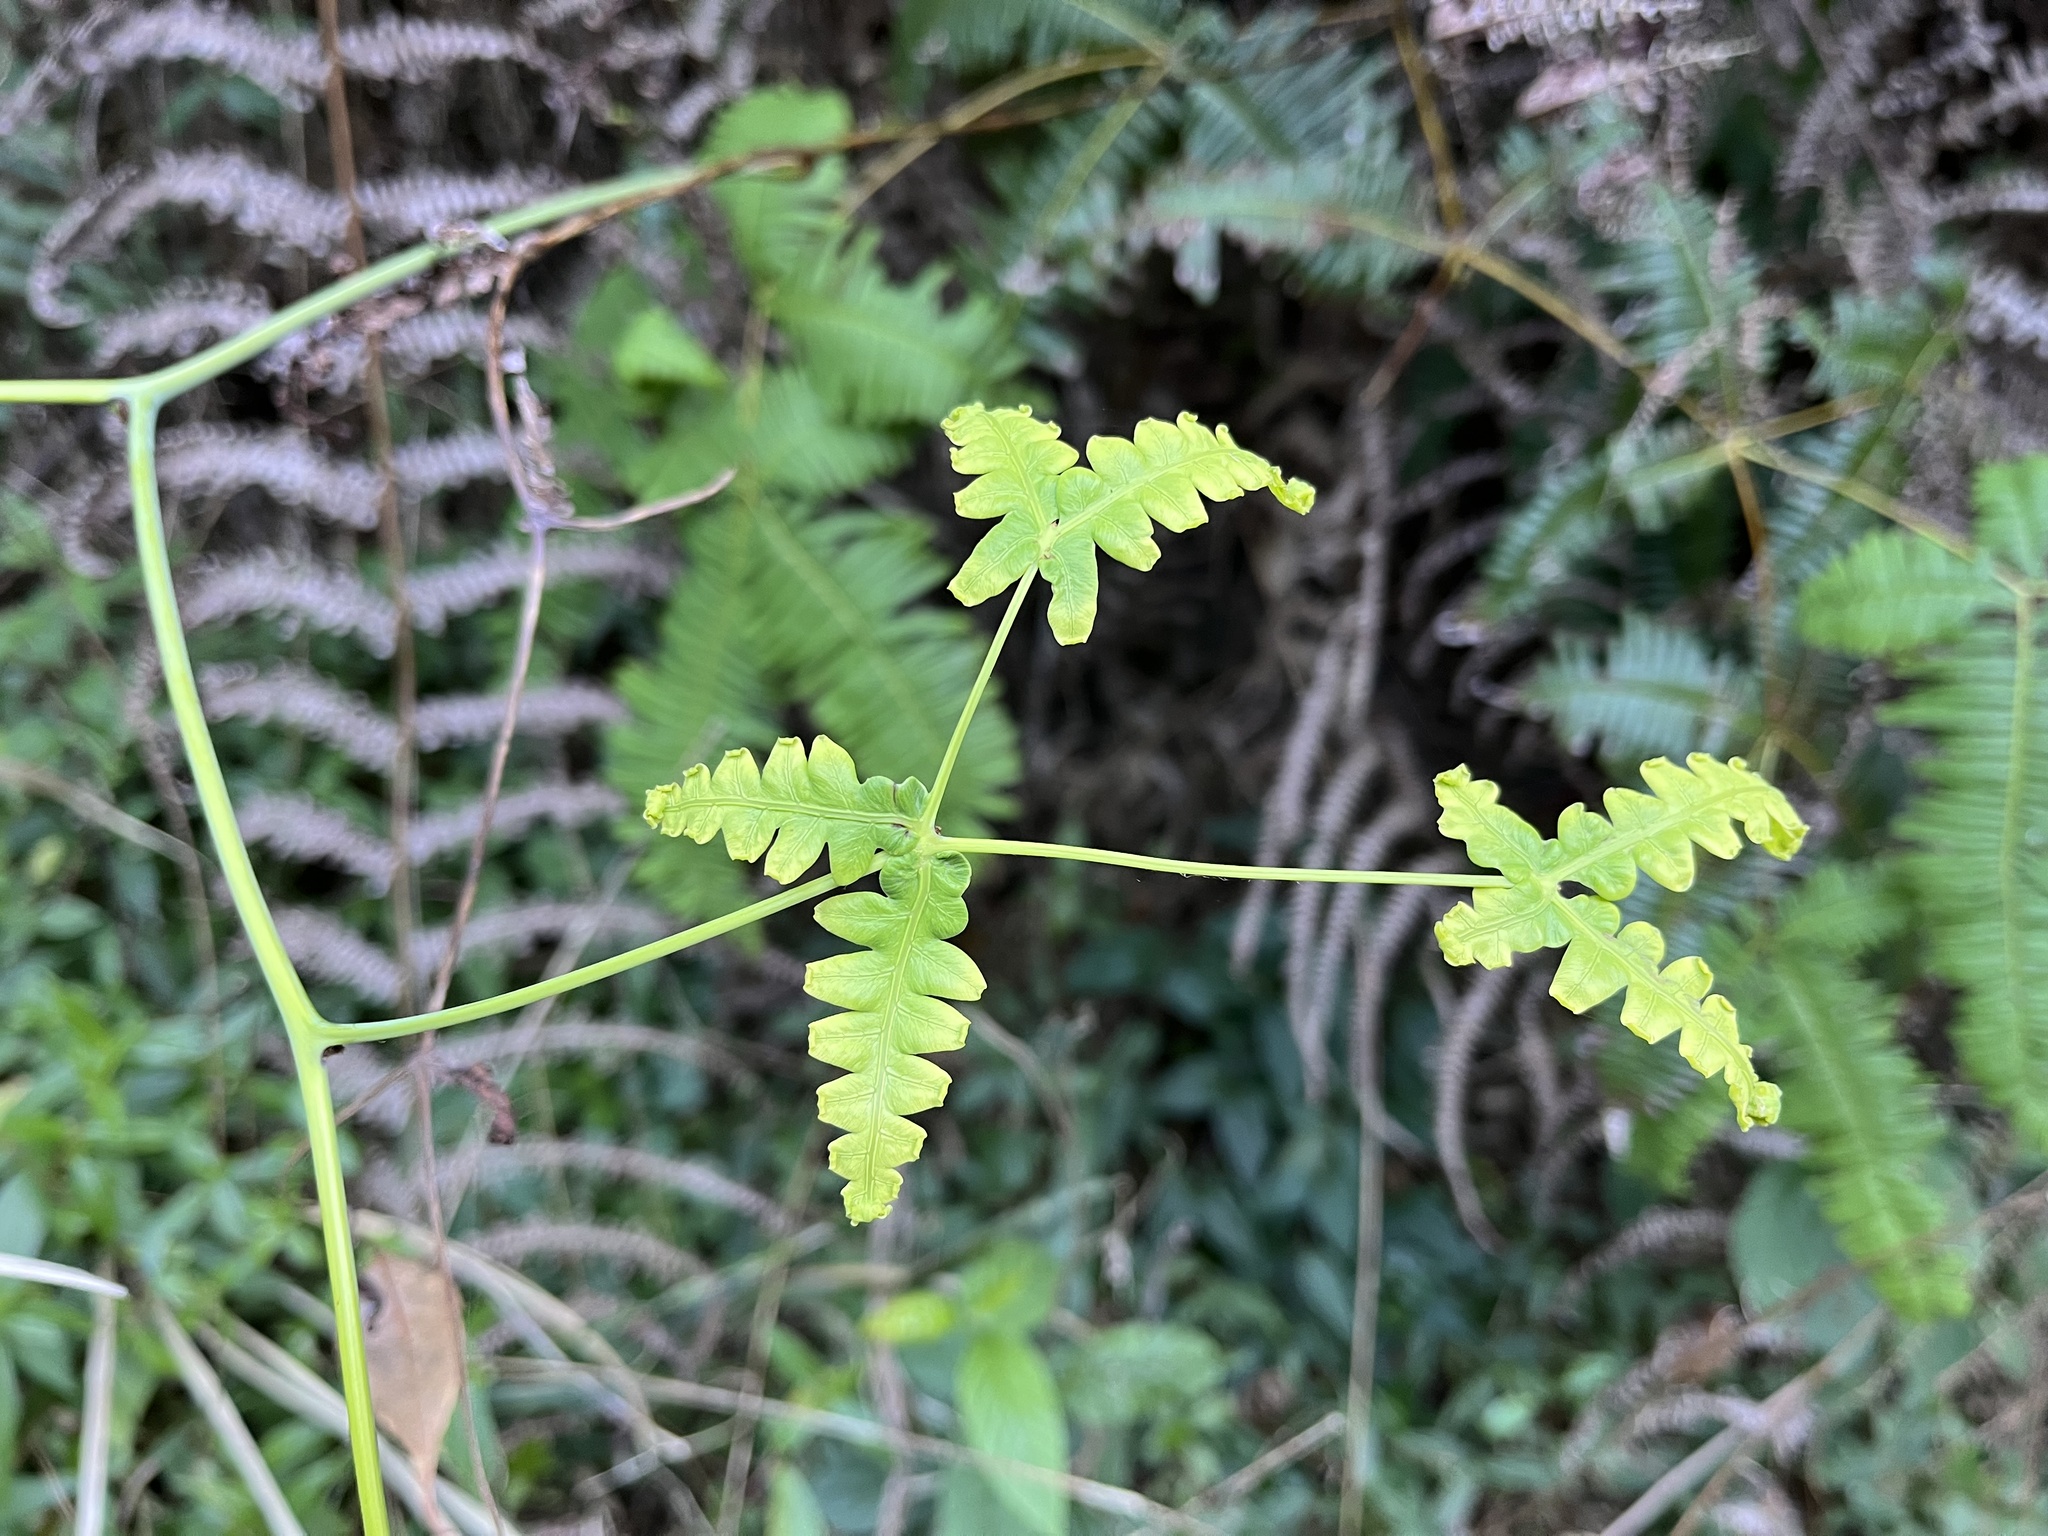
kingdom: Plantae
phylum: Tracheophyta
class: Polypodiopsida
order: Gleicheniales
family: Gleicheniaceae
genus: Dicranopteris
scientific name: Dicranopteris taiwanensis
